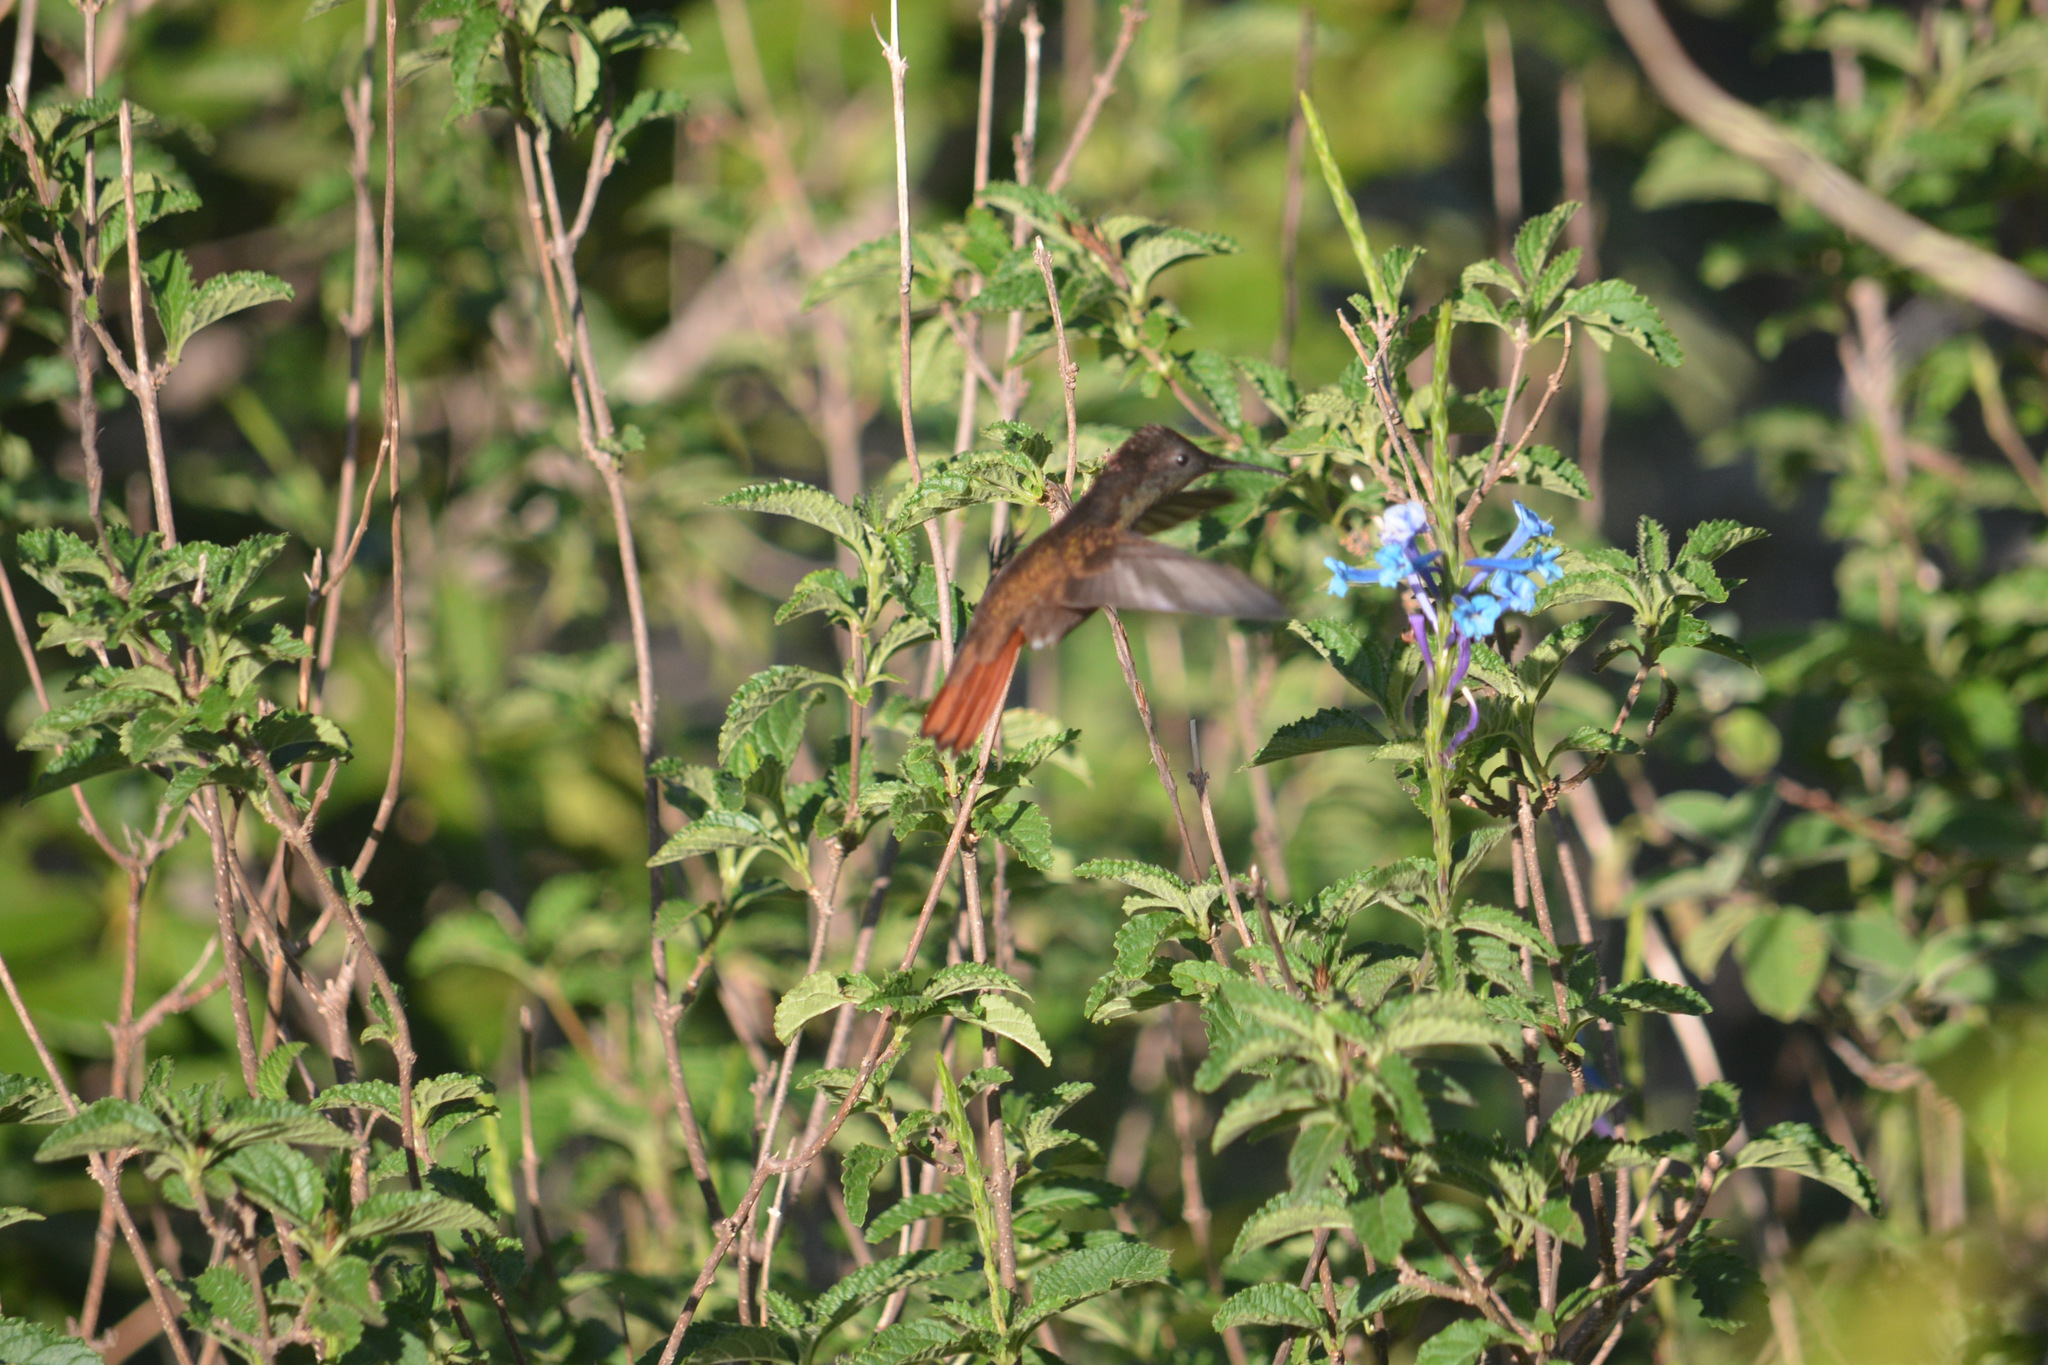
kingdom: Animalia
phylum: Chordata
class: Aves
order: Apodiformes
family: Trochilidae
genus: Chrysolampis
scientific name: Chrysolampis mosquitus
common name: Ruby-topaz hummingbird
